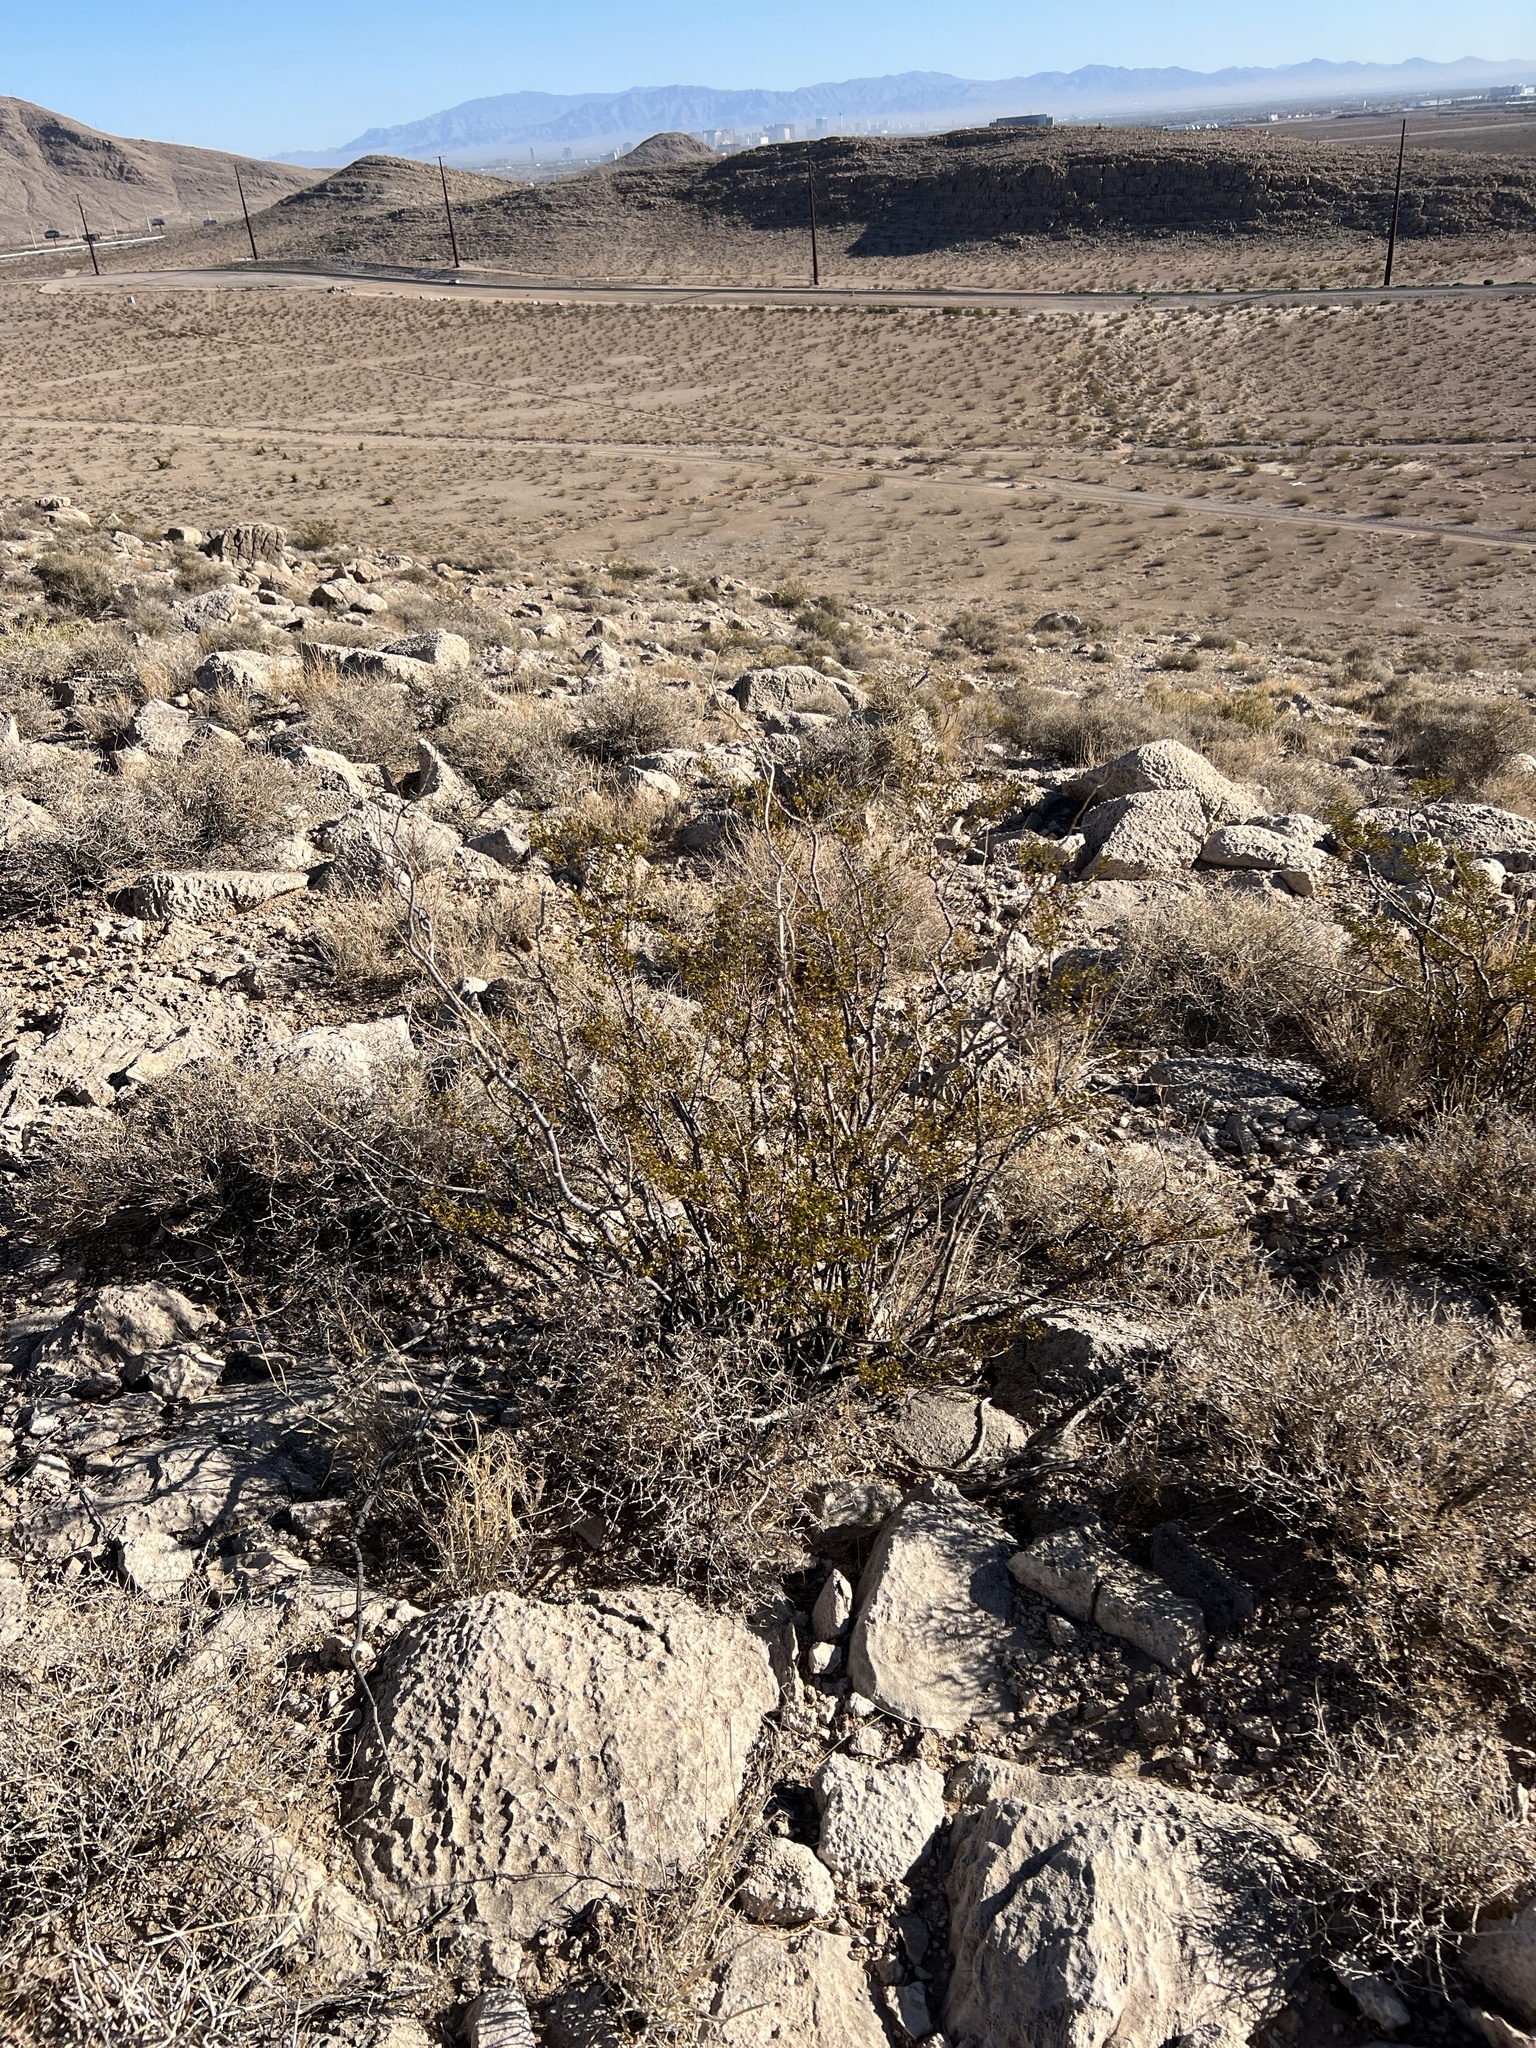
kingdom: Plantae
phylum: Tracheophyta
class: Magnoliopsida
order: Zygophyllales
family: Zygophyllaceae
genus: Larrea
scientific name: Larrea tridentata
